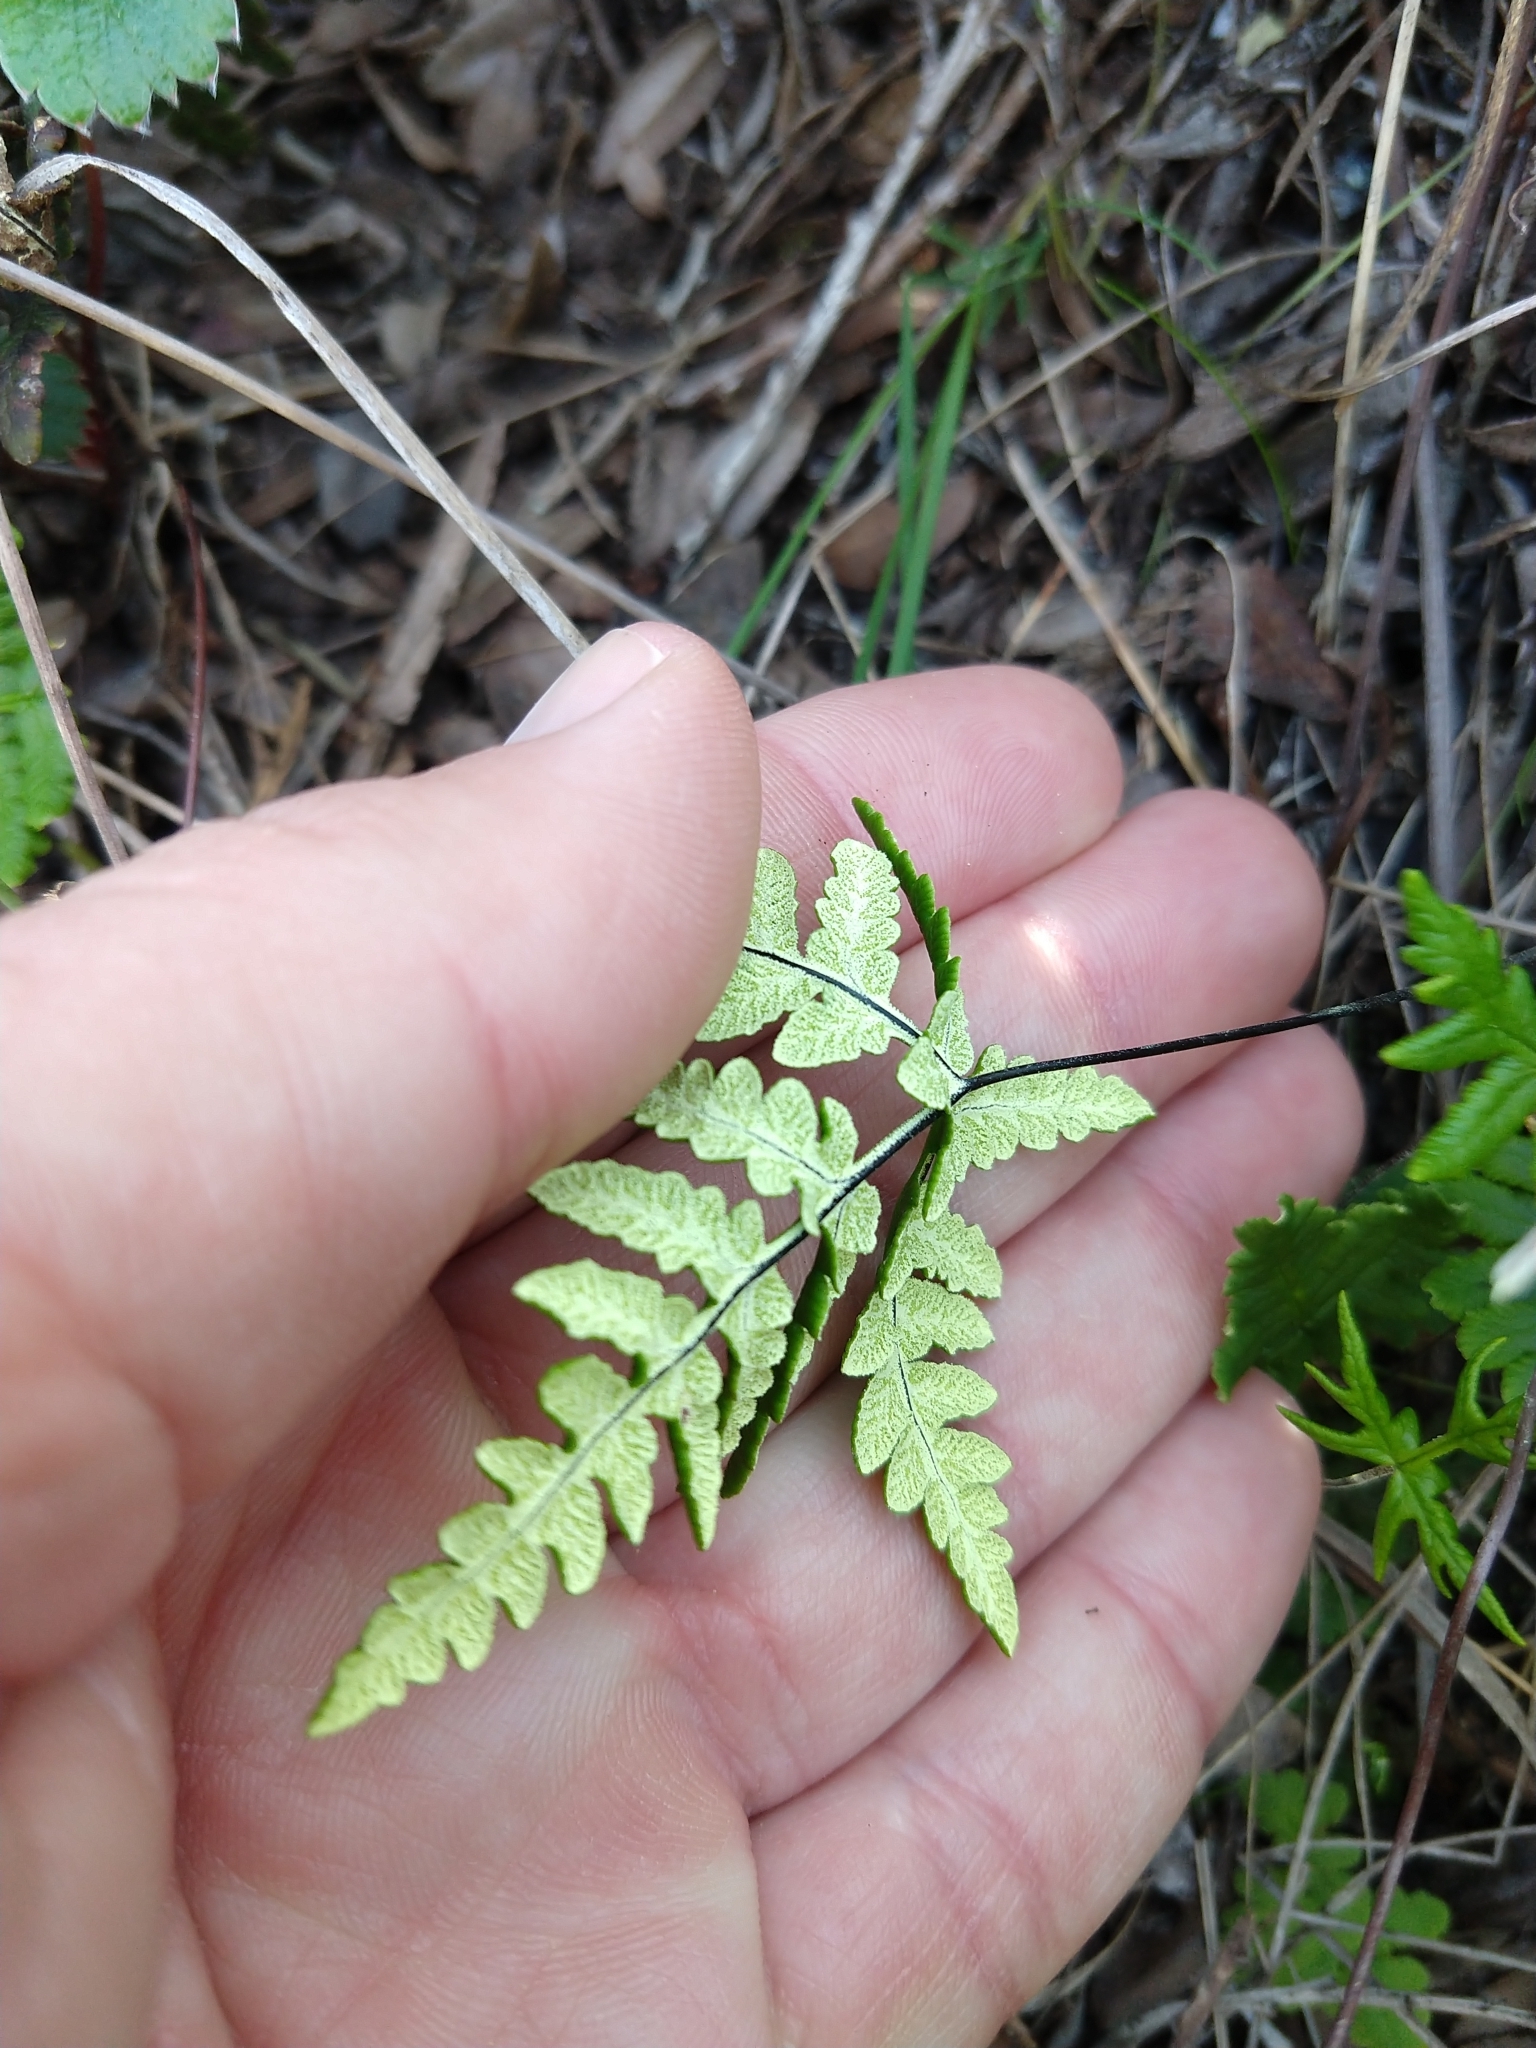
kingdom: Plantae
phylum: Tracheophyta
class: Polypodiopsida
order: Polypodiales
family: Pteridaceae
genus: Pentagramma
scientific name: Pentagramma triangularis
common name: Gold fern
